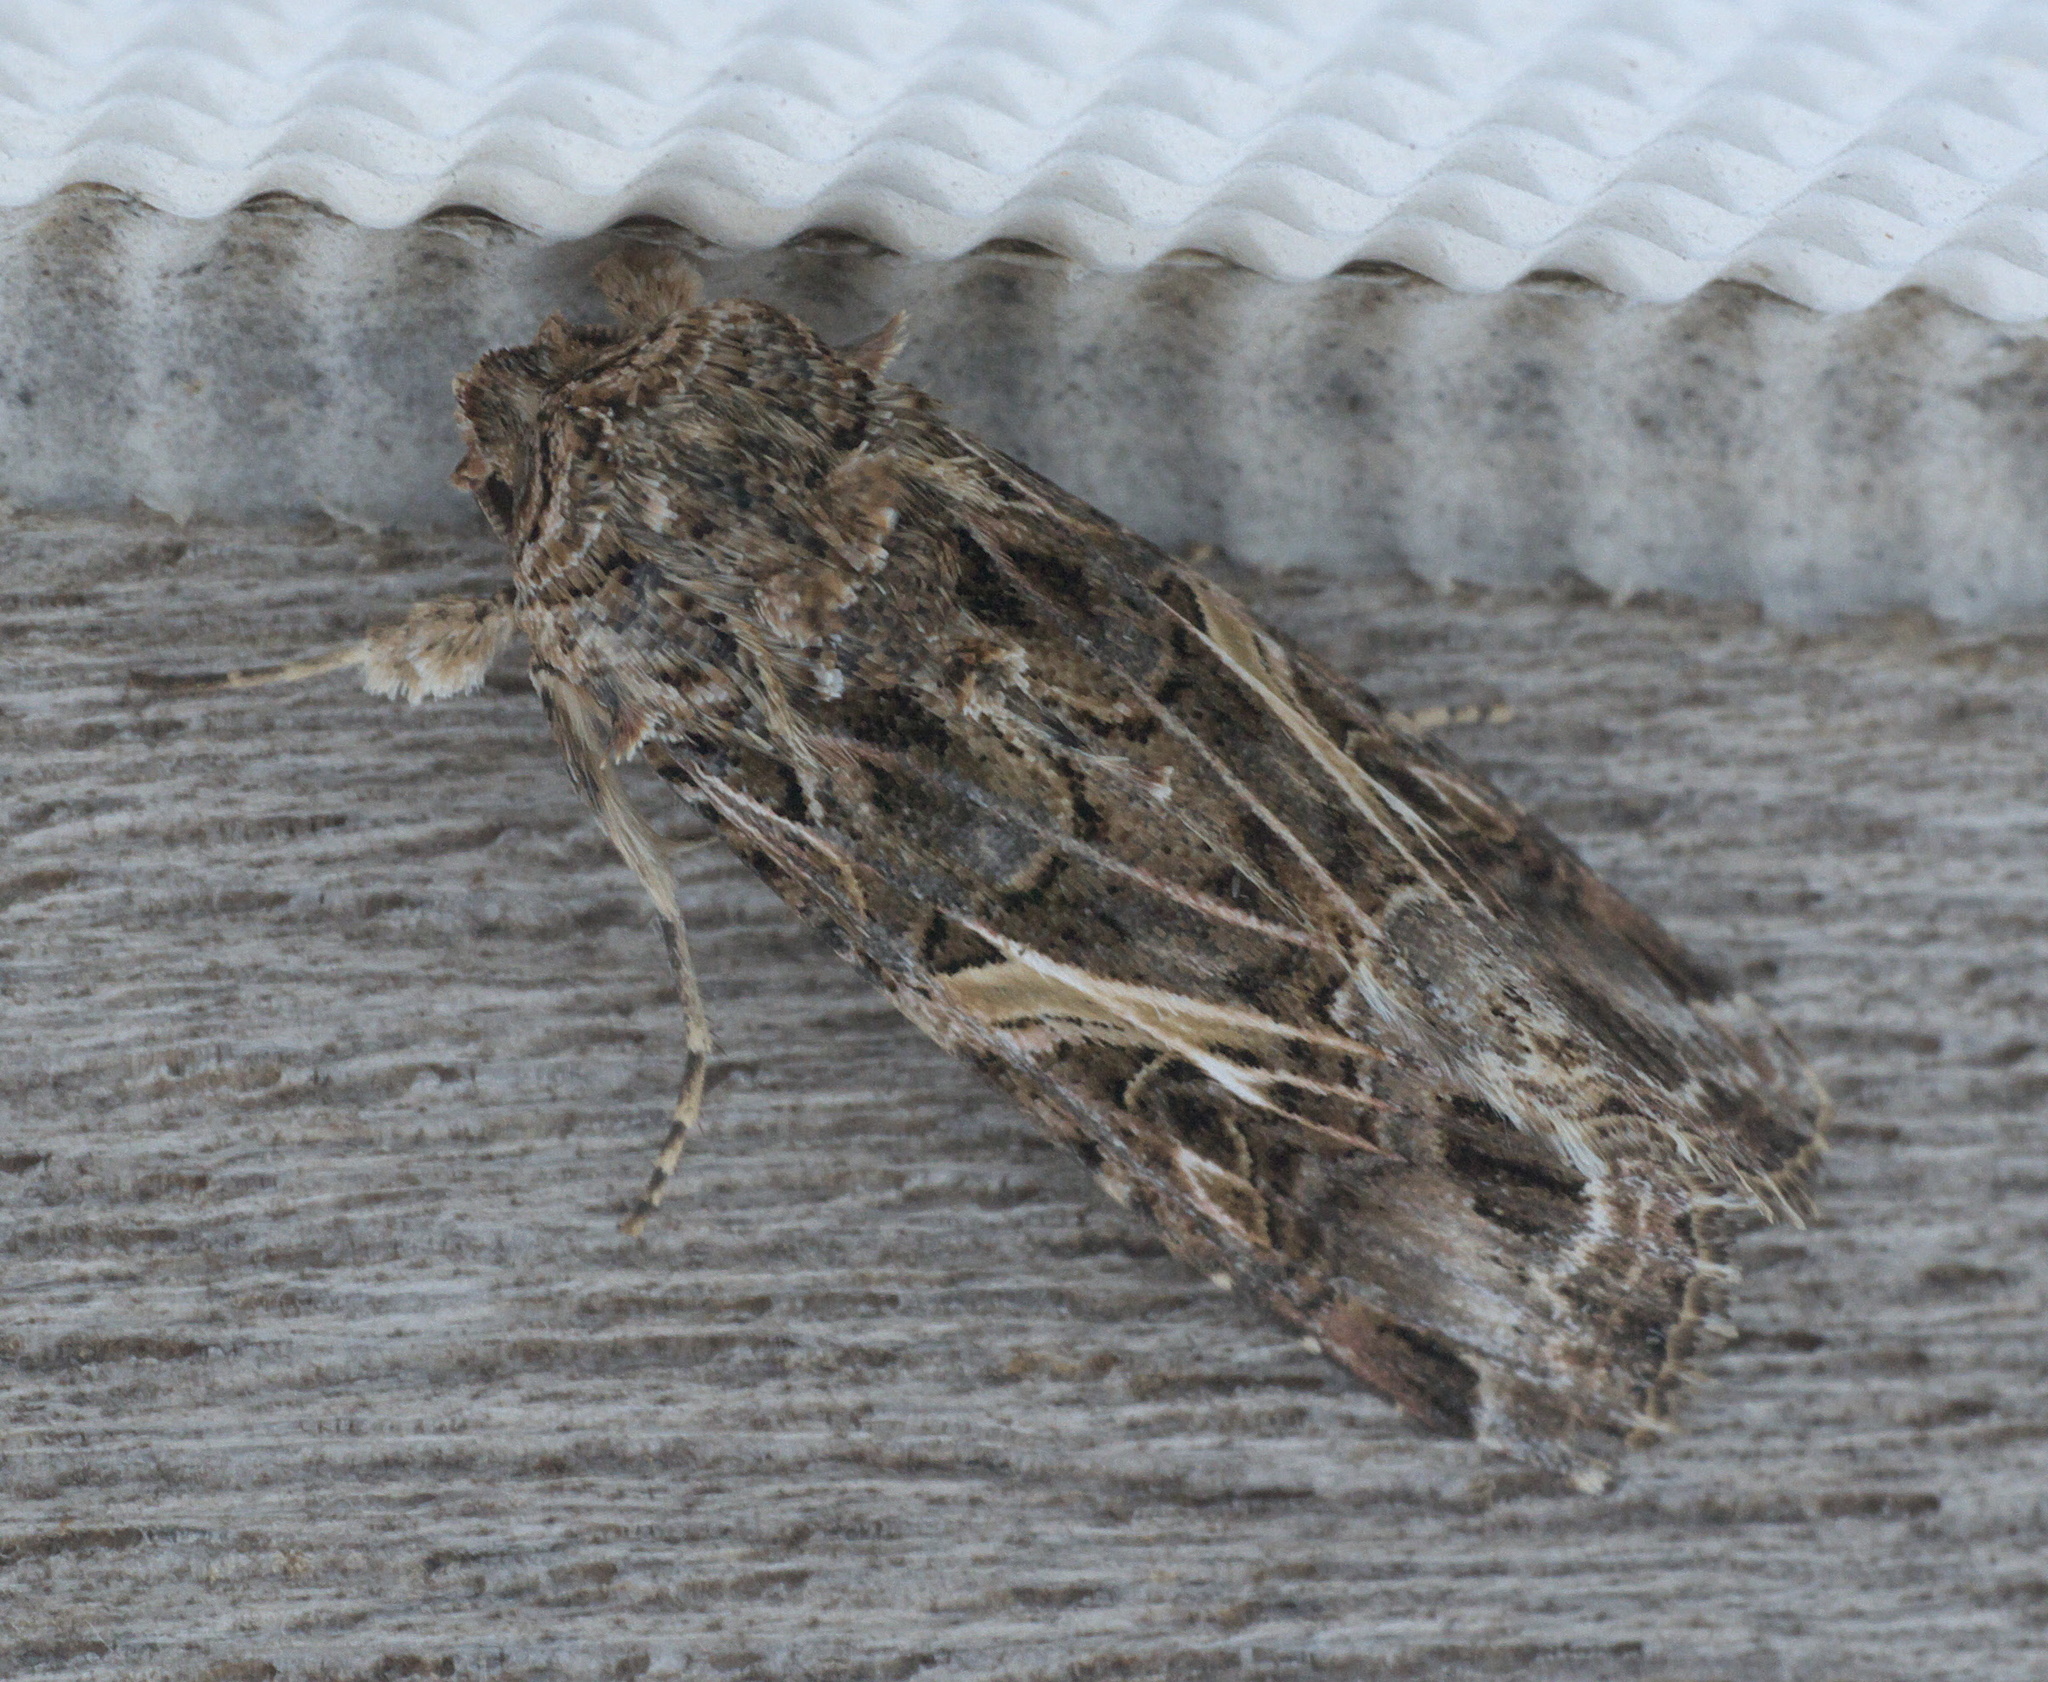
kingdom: Animalia
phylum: Arthropoda
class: Insecta
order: Lepidoptera
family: Noctuidae
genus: Spodoptera
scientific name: Spodoptera ornithogalli
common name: Yellow-striped armyworm
